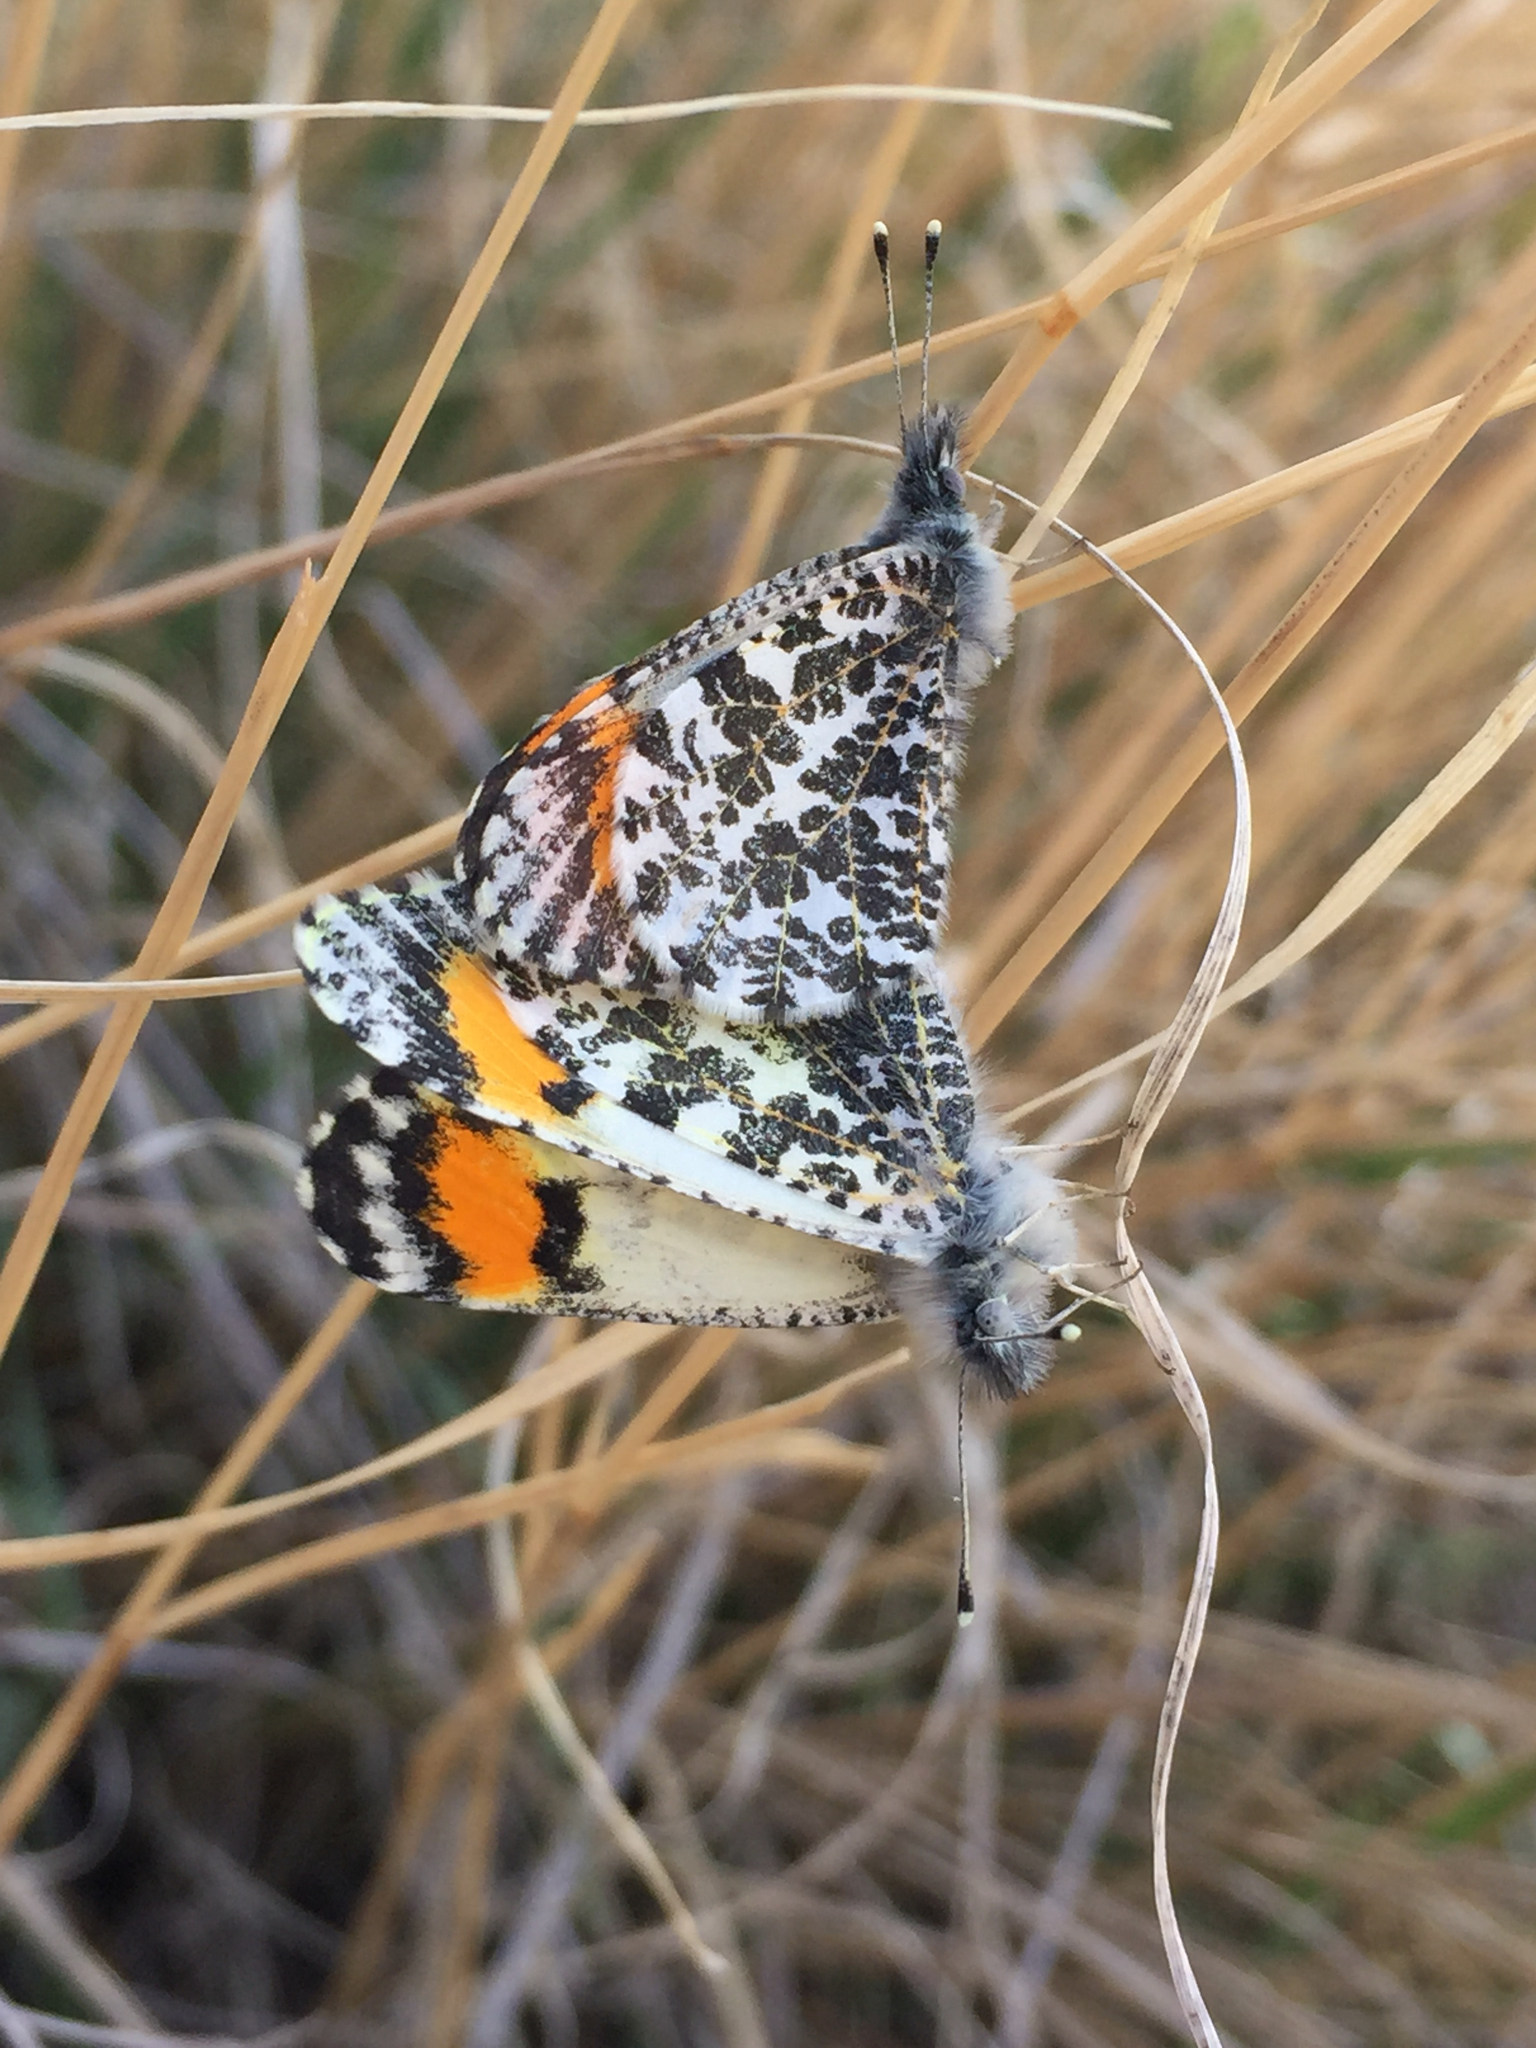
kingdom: Animalia
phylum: Arthropoda
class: Insecta
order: Lepidoptera
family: Pieridae
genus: Anthocharis
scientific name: Anthocharis thoosa
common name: Southwestern orangetip
